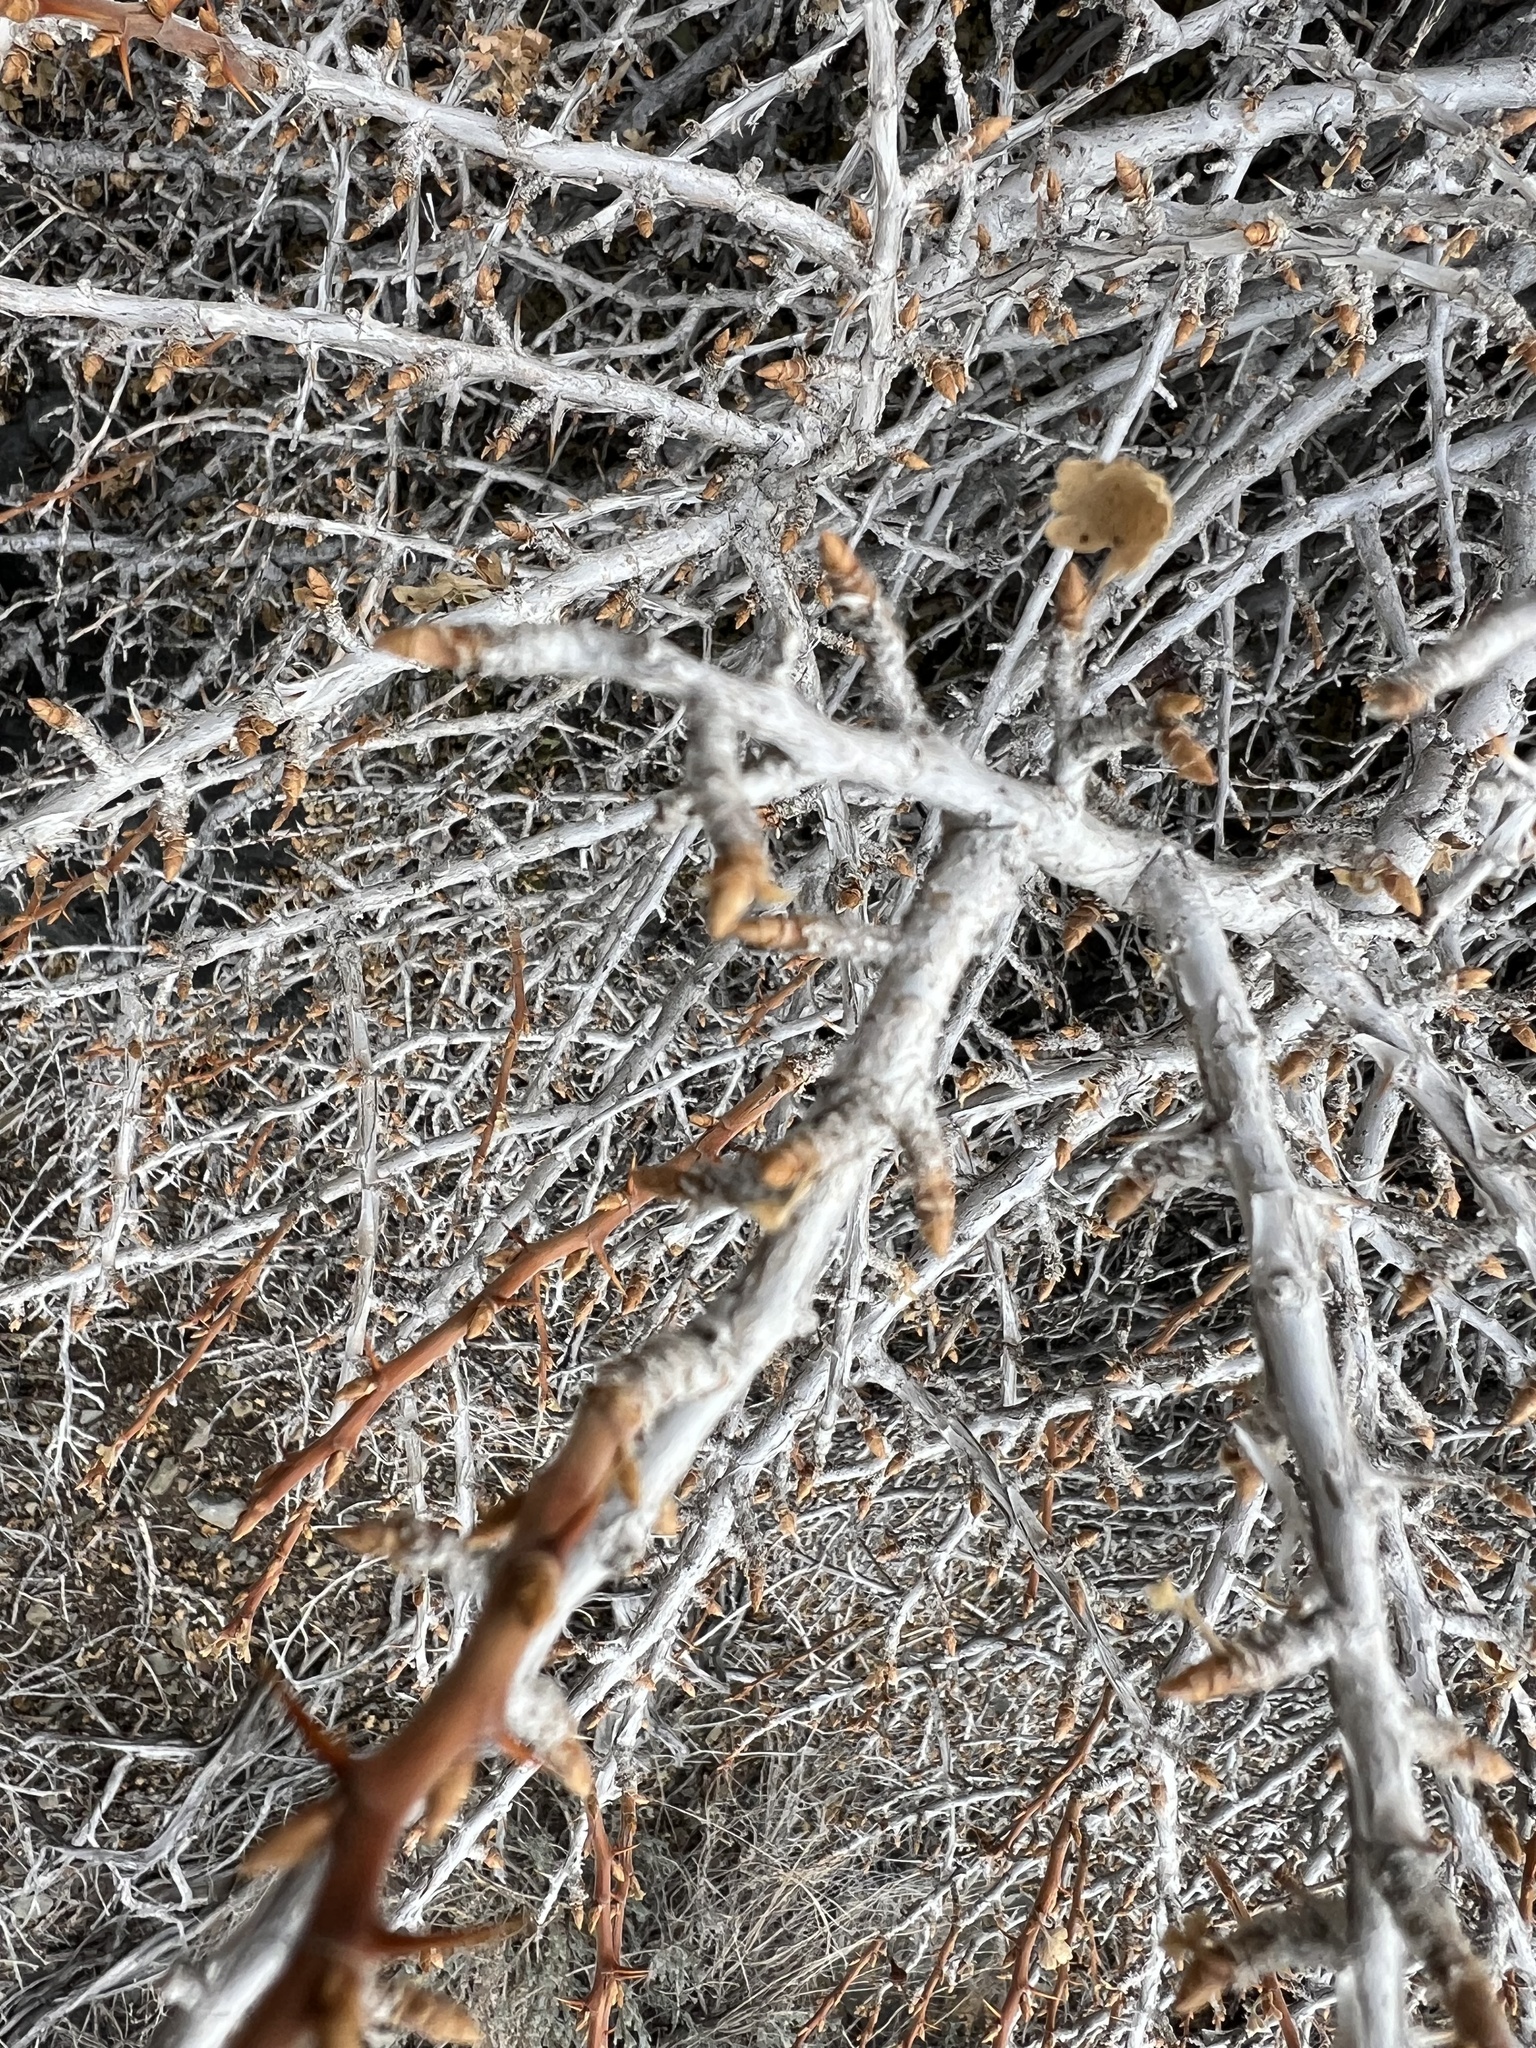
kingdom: Plantae
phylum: Tracheophyta
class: Magnoliopsida
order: Saxifragales
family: Grossulariaceae
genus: Ribes
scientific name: Ribes velutinum
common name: Desert gooseberry
